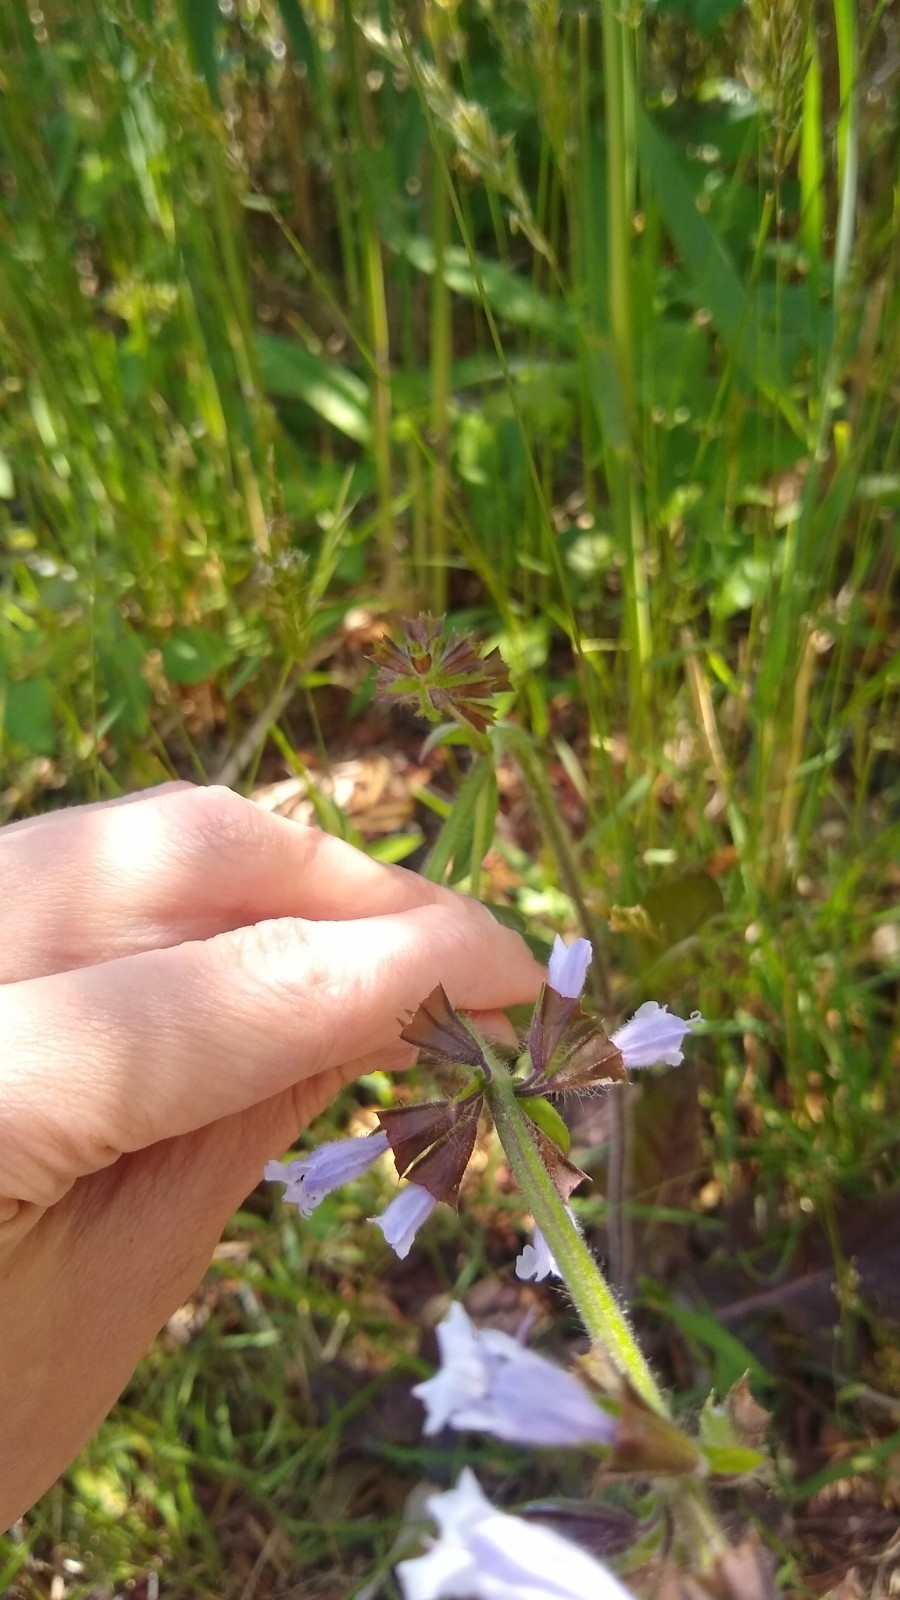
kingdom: Plantae
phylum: Tracheophyta
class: Magnoliopsida
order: Lamiales
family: Lamiaceae
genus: Salvia
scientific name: Salvia lyrata
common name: Cancerweed
